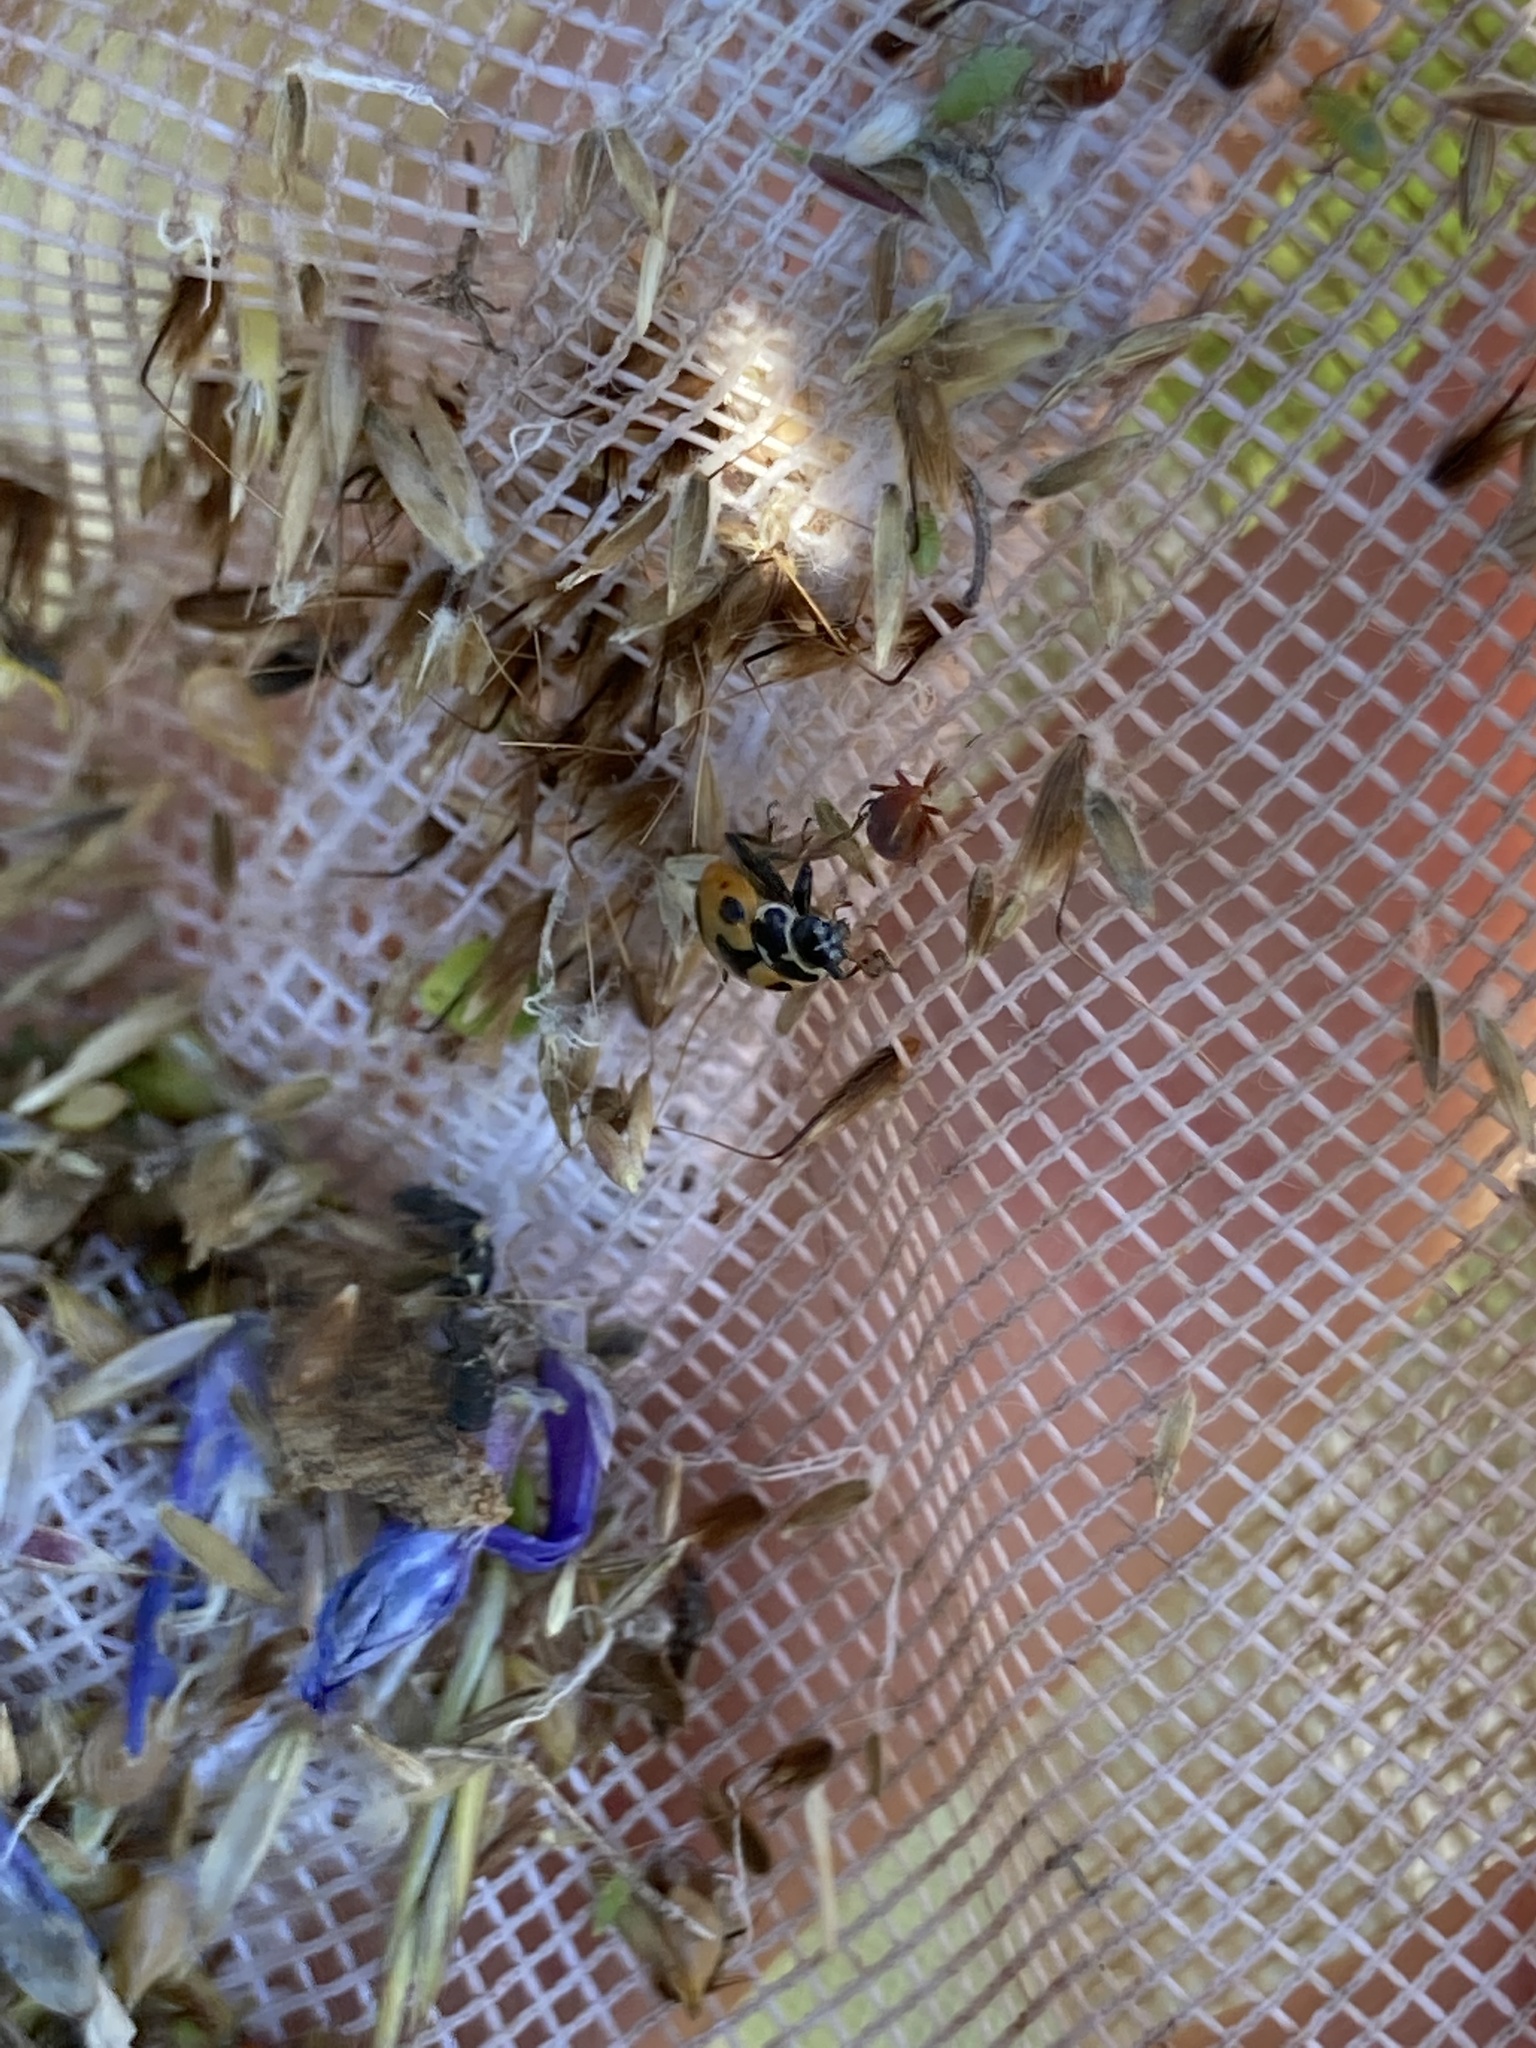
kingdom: Animalia
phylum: Arthropoda
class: Insecta
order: Coleoptera
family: Coccinellidae
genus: Hippodamia
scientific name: Hippodamia parenthesis
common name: Parenthesis lady beetle
